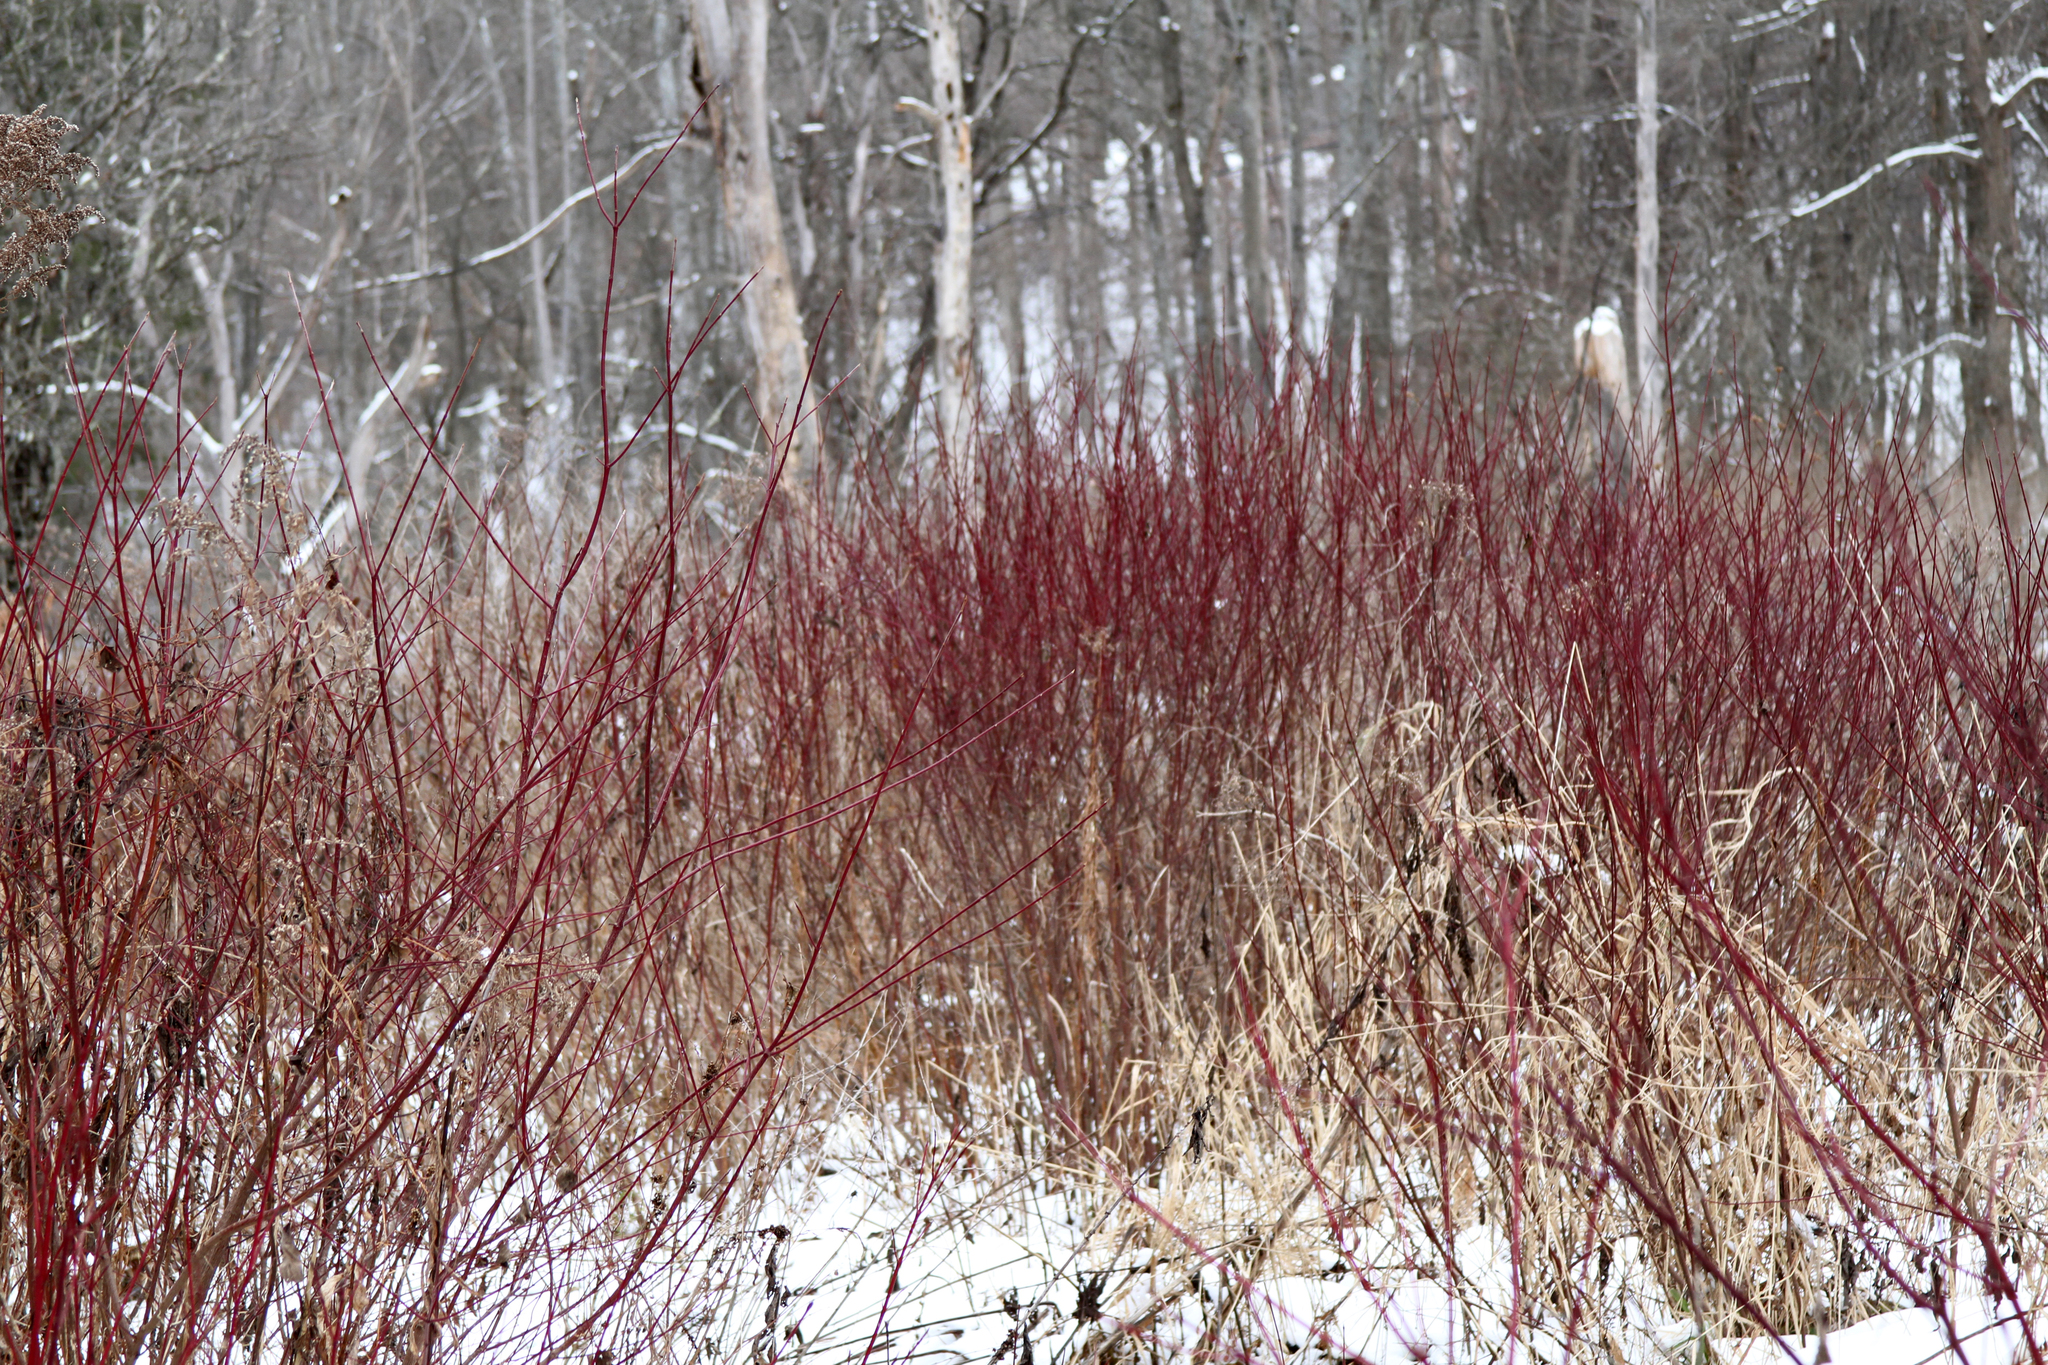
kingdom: Plantae
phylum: Tracheophyta
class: Magnoliopsida
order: Cornales
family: Cornaceae
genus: Cornus
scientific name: Cornus sericea
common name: Red-osier dogwood
